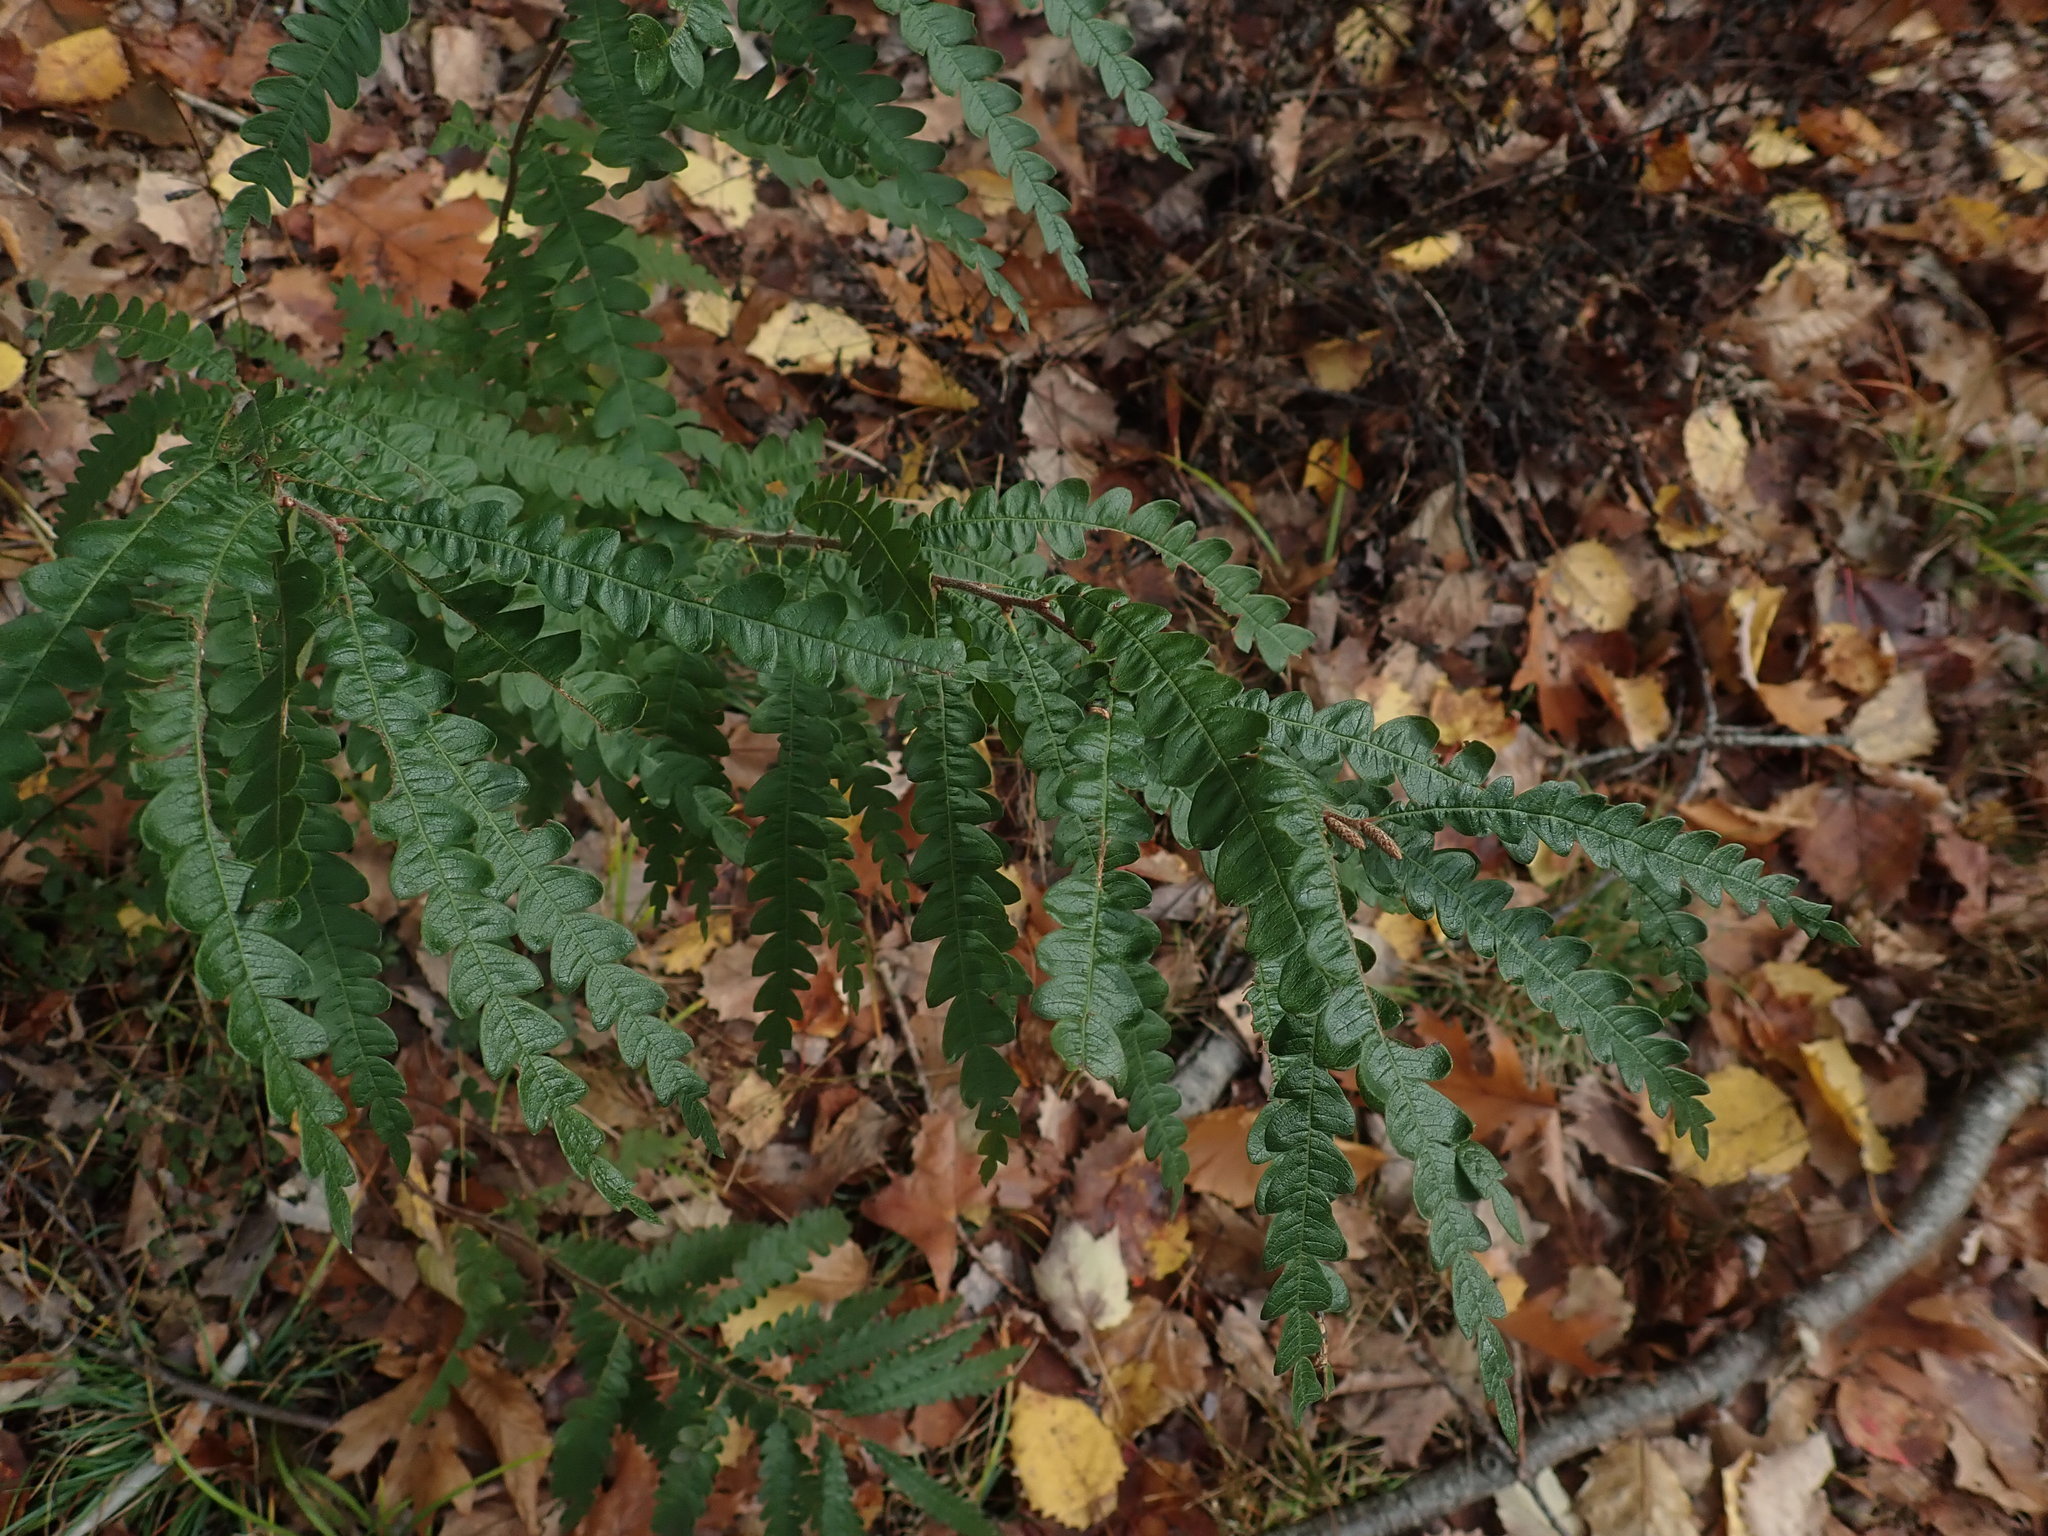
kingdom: Plantae
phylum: Tracheophyta
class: Magnoliopsida
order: Fagales
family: Myricaceae
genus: Comptonia
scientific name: Comptonia peregrina
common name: Sweet-fern
